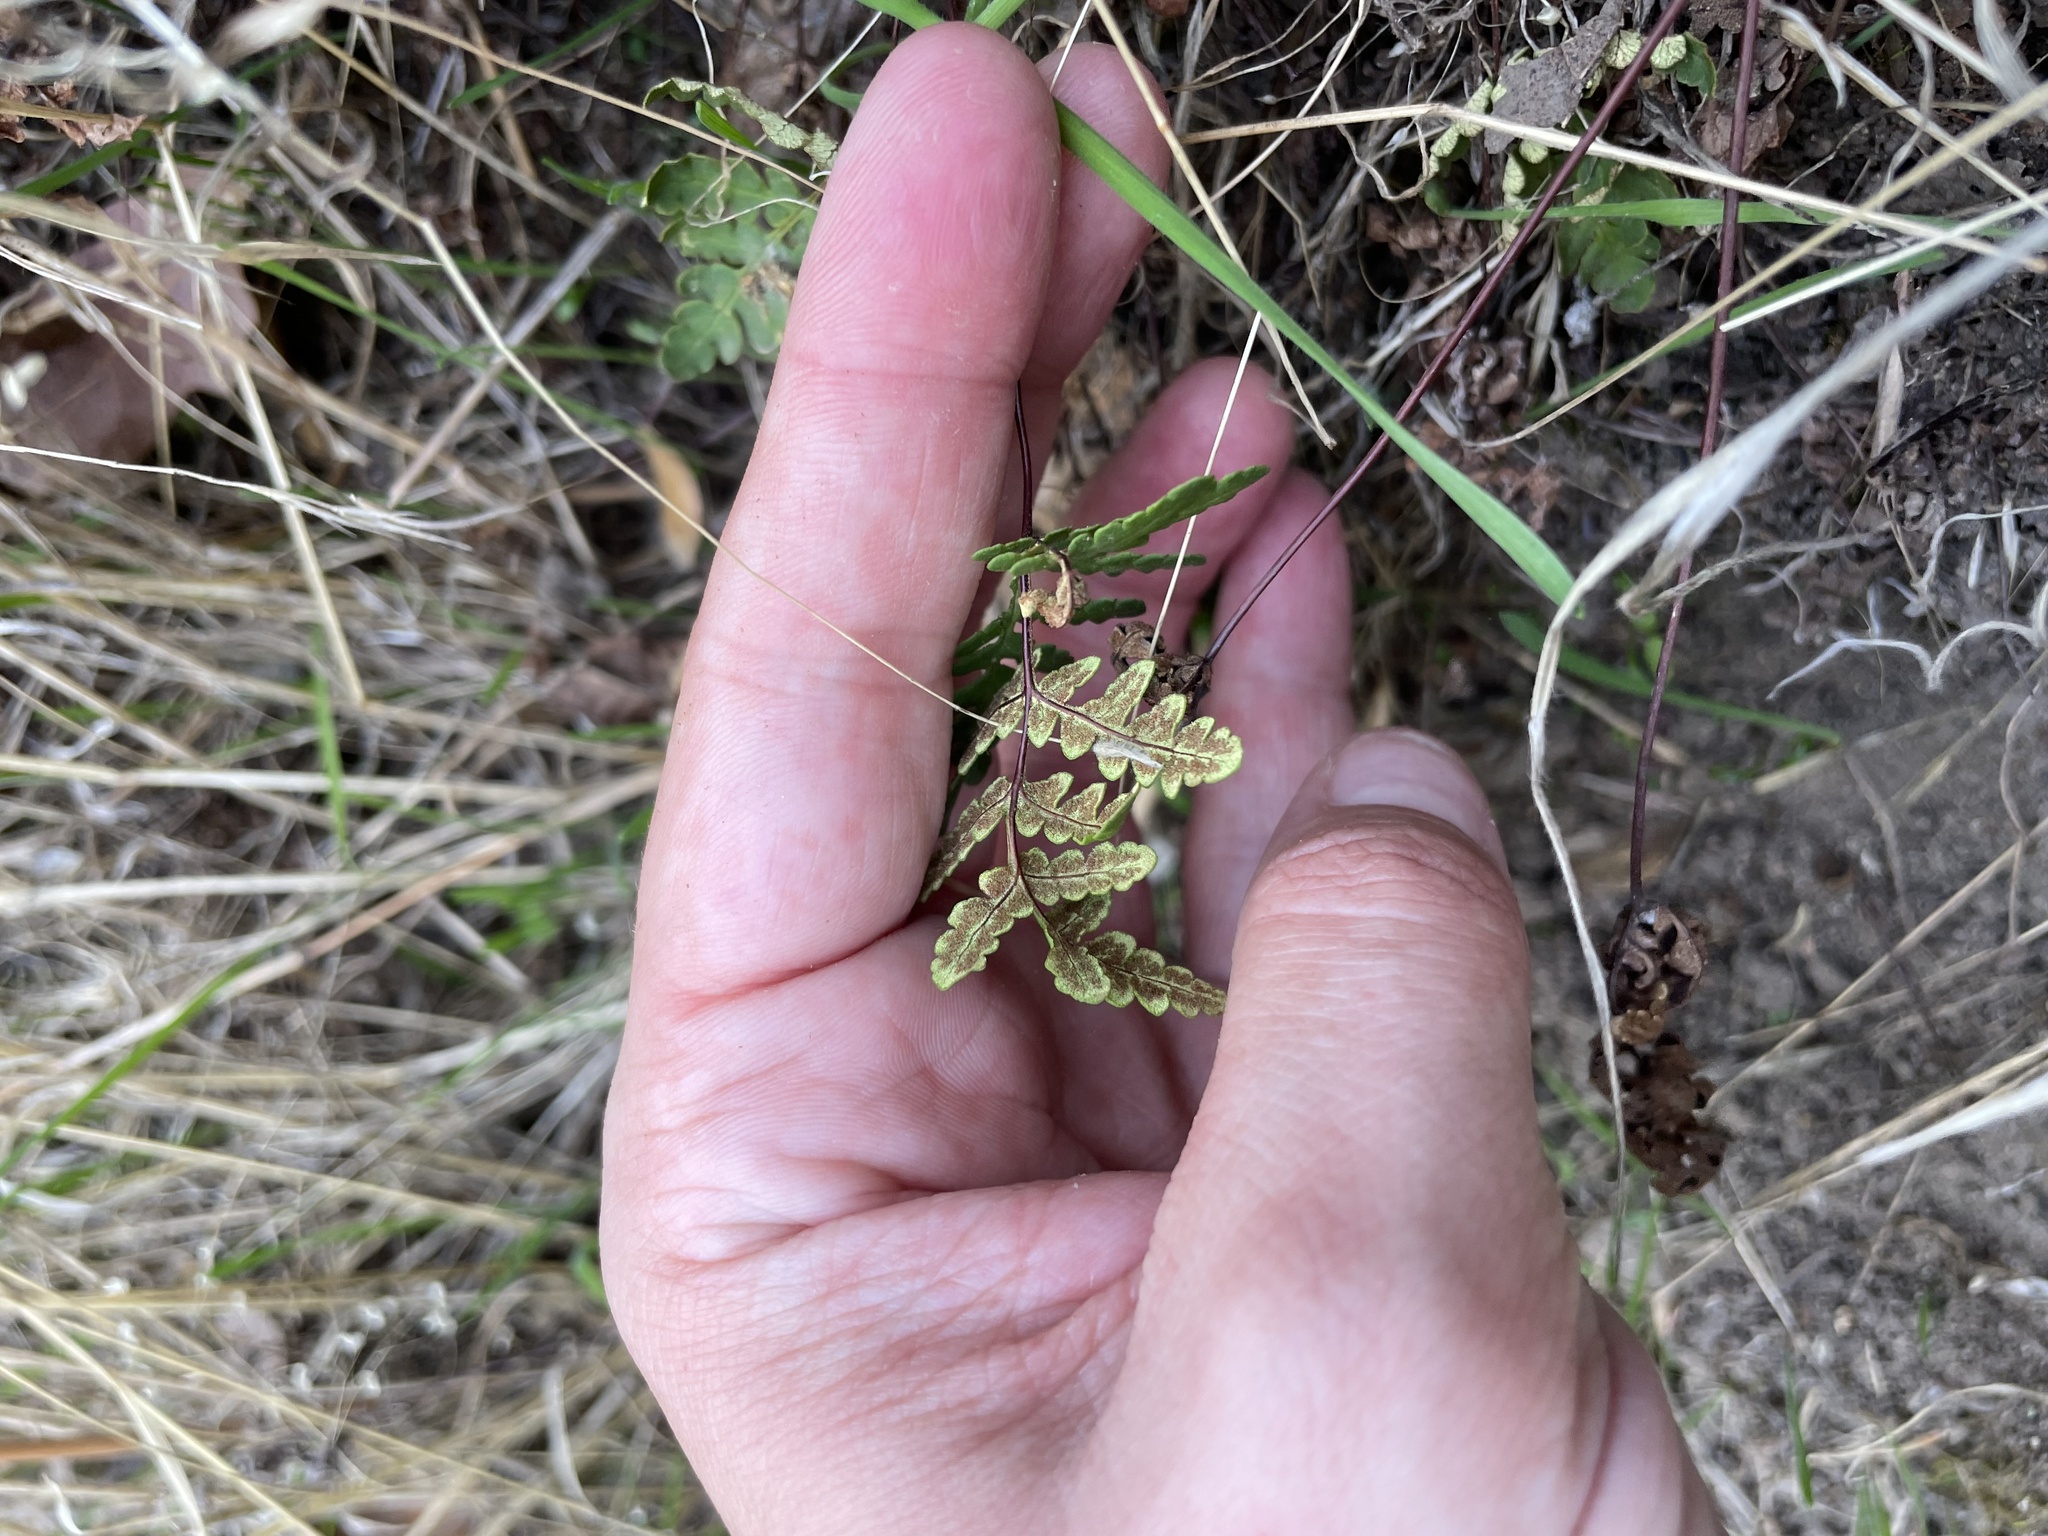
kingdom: Plantae
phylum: Tracheophyta
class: Polypodiopsida
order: Polypodiales
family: Pteridaceae
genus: Pentagramma
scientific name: Pentagramma triangularis
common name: Gold fern
